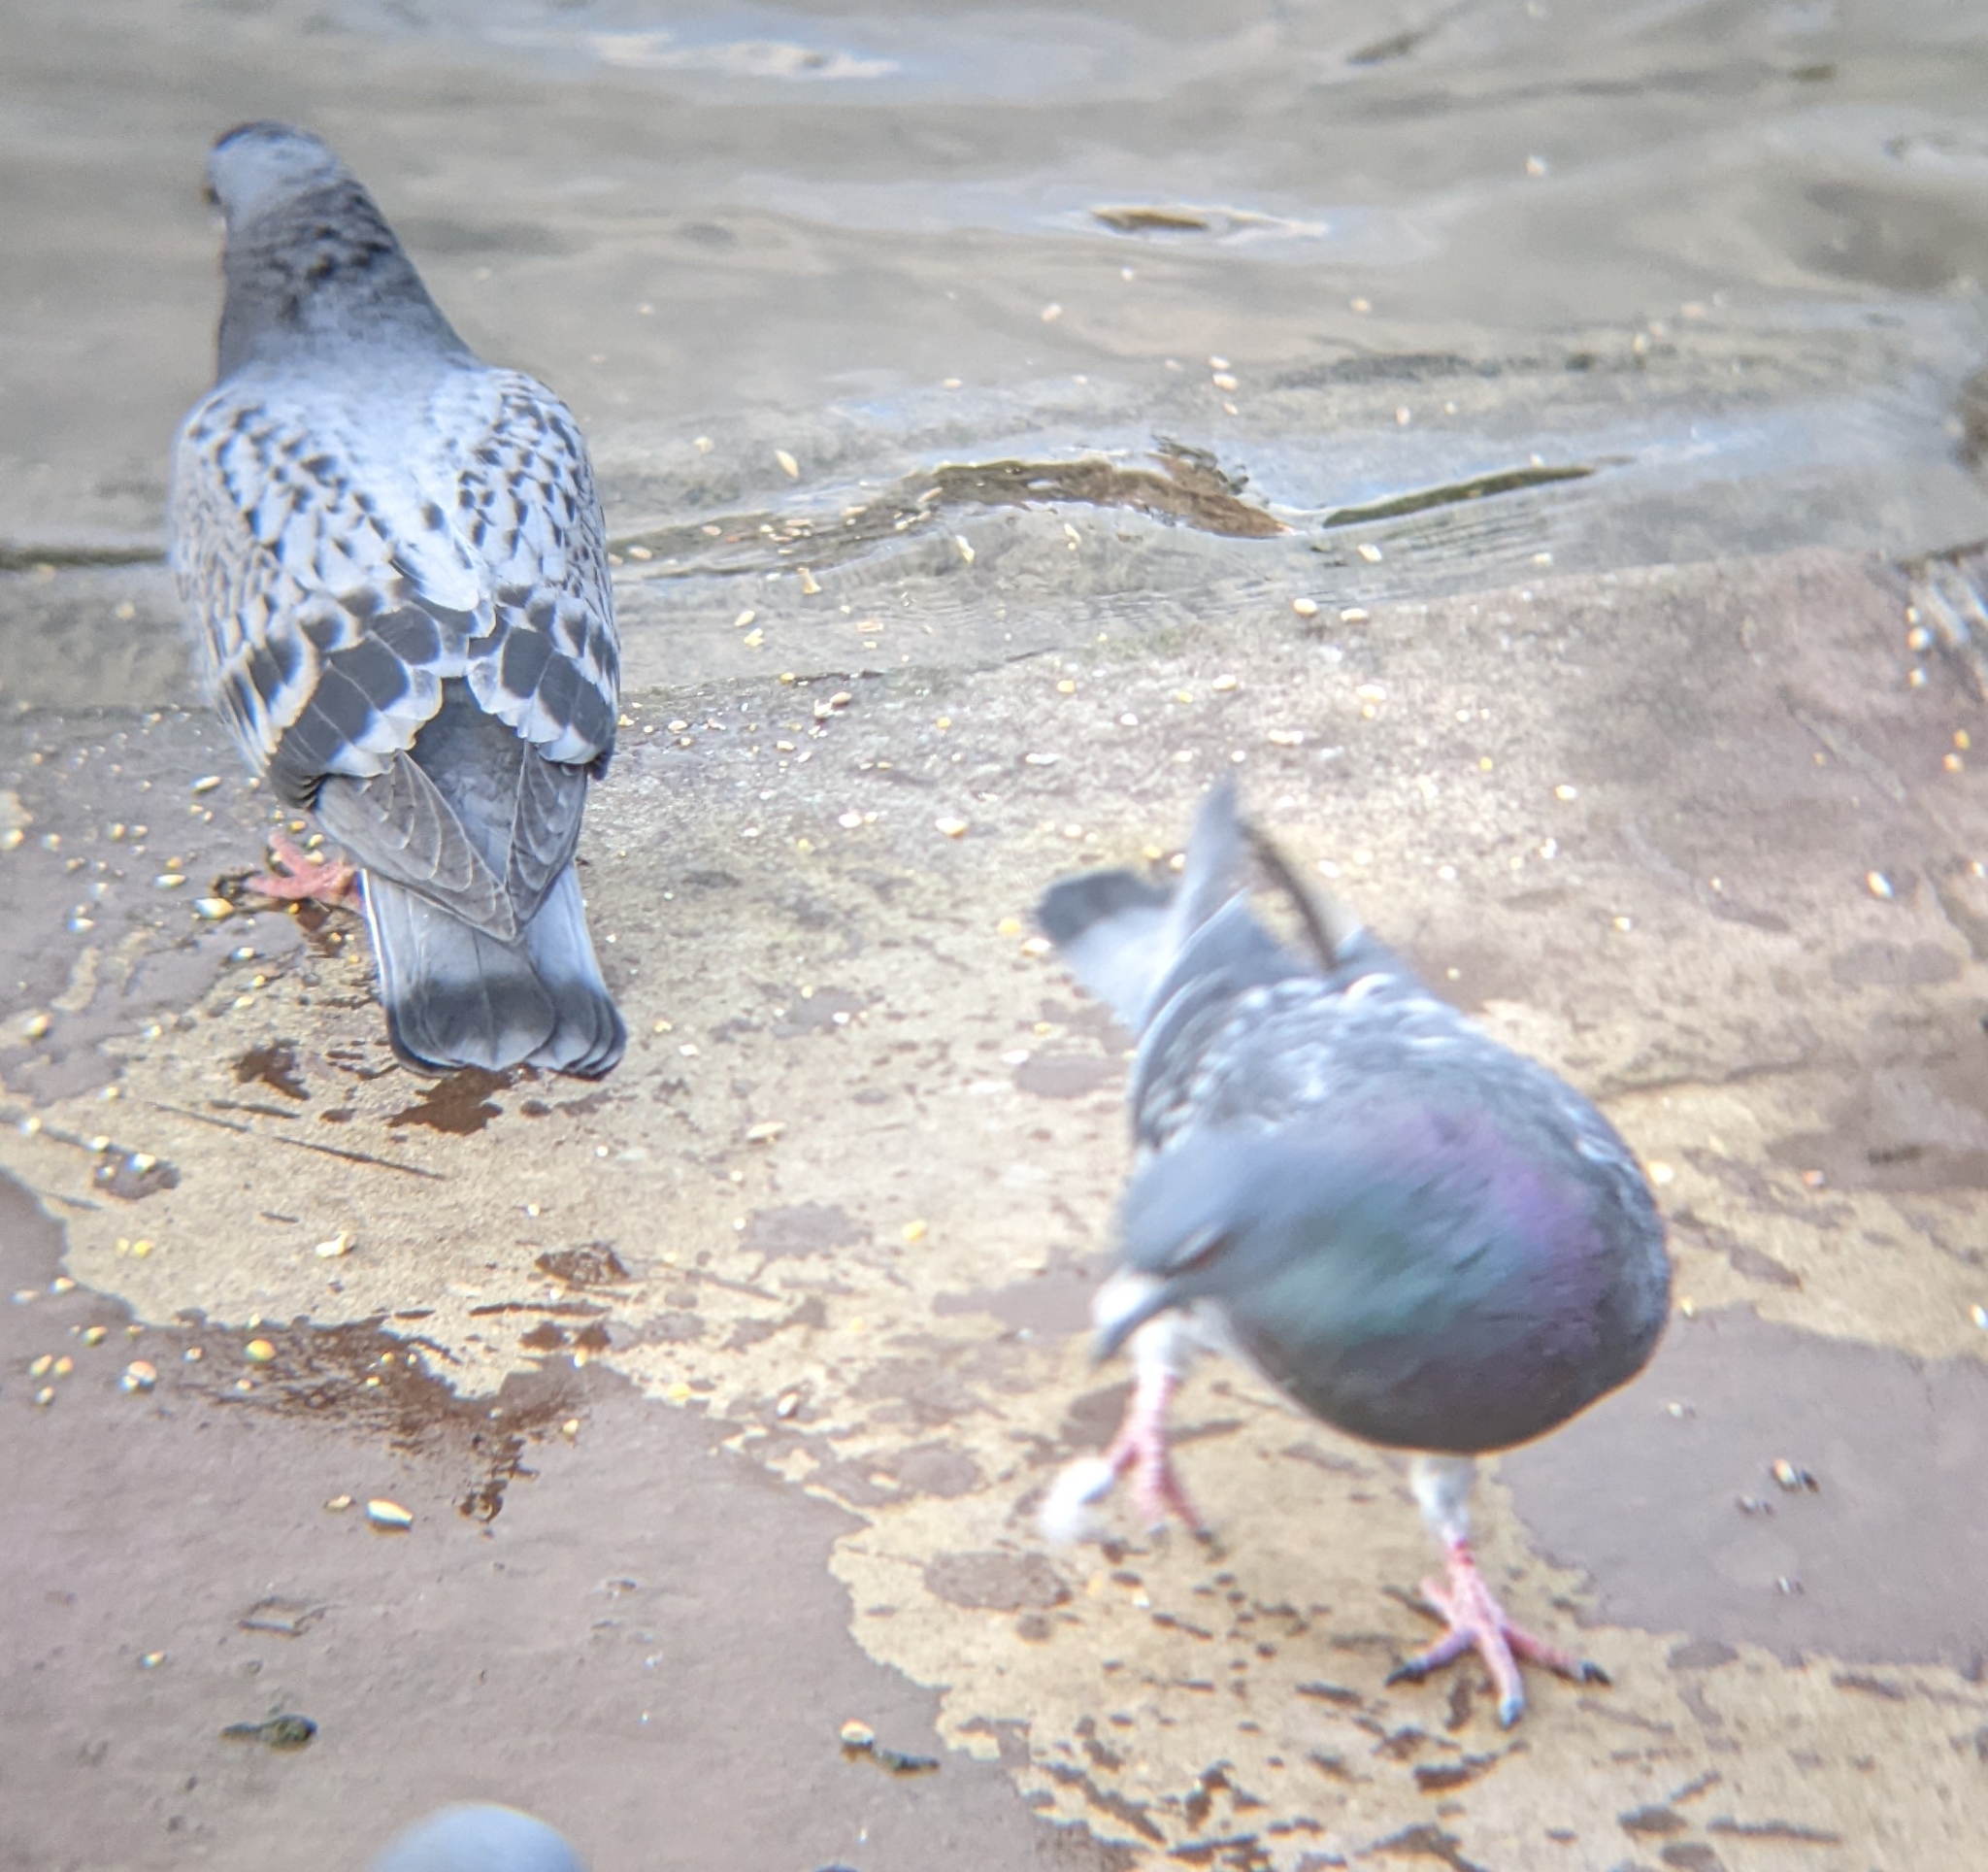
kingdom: Animalia
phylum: Chordata
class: Aves
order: Columbiformes
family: Columbidae
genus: Columba
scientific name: Columba livia
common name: Rock pigeon
